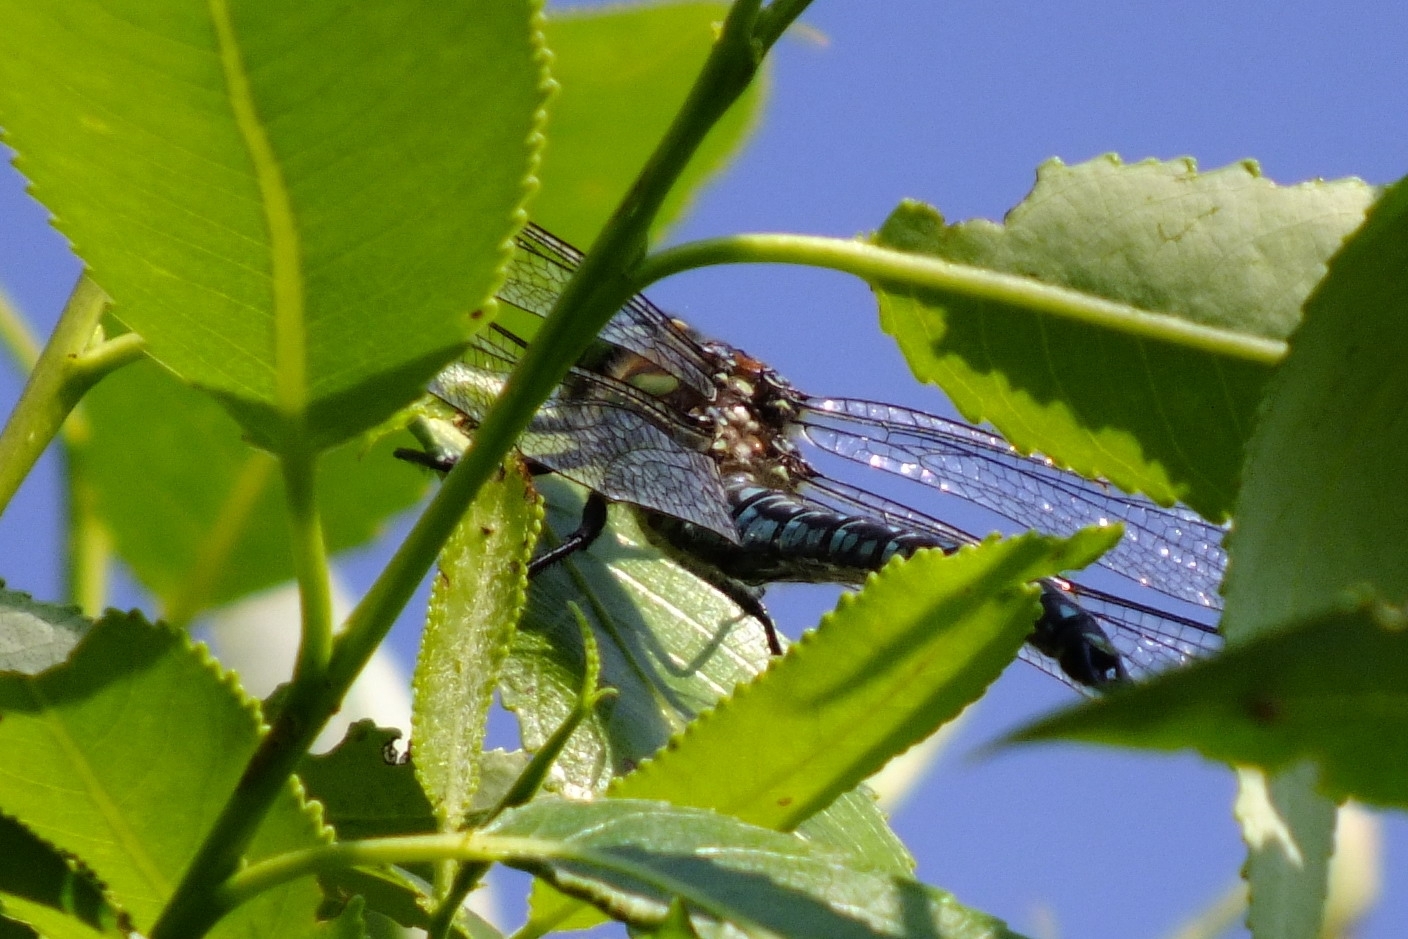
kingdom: Animalia
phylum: Arthropoda
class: Insecta
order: Odonata
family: Aeshnidae
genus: Brachytron
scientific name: Brachytron pratense
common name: Hairy hawker
